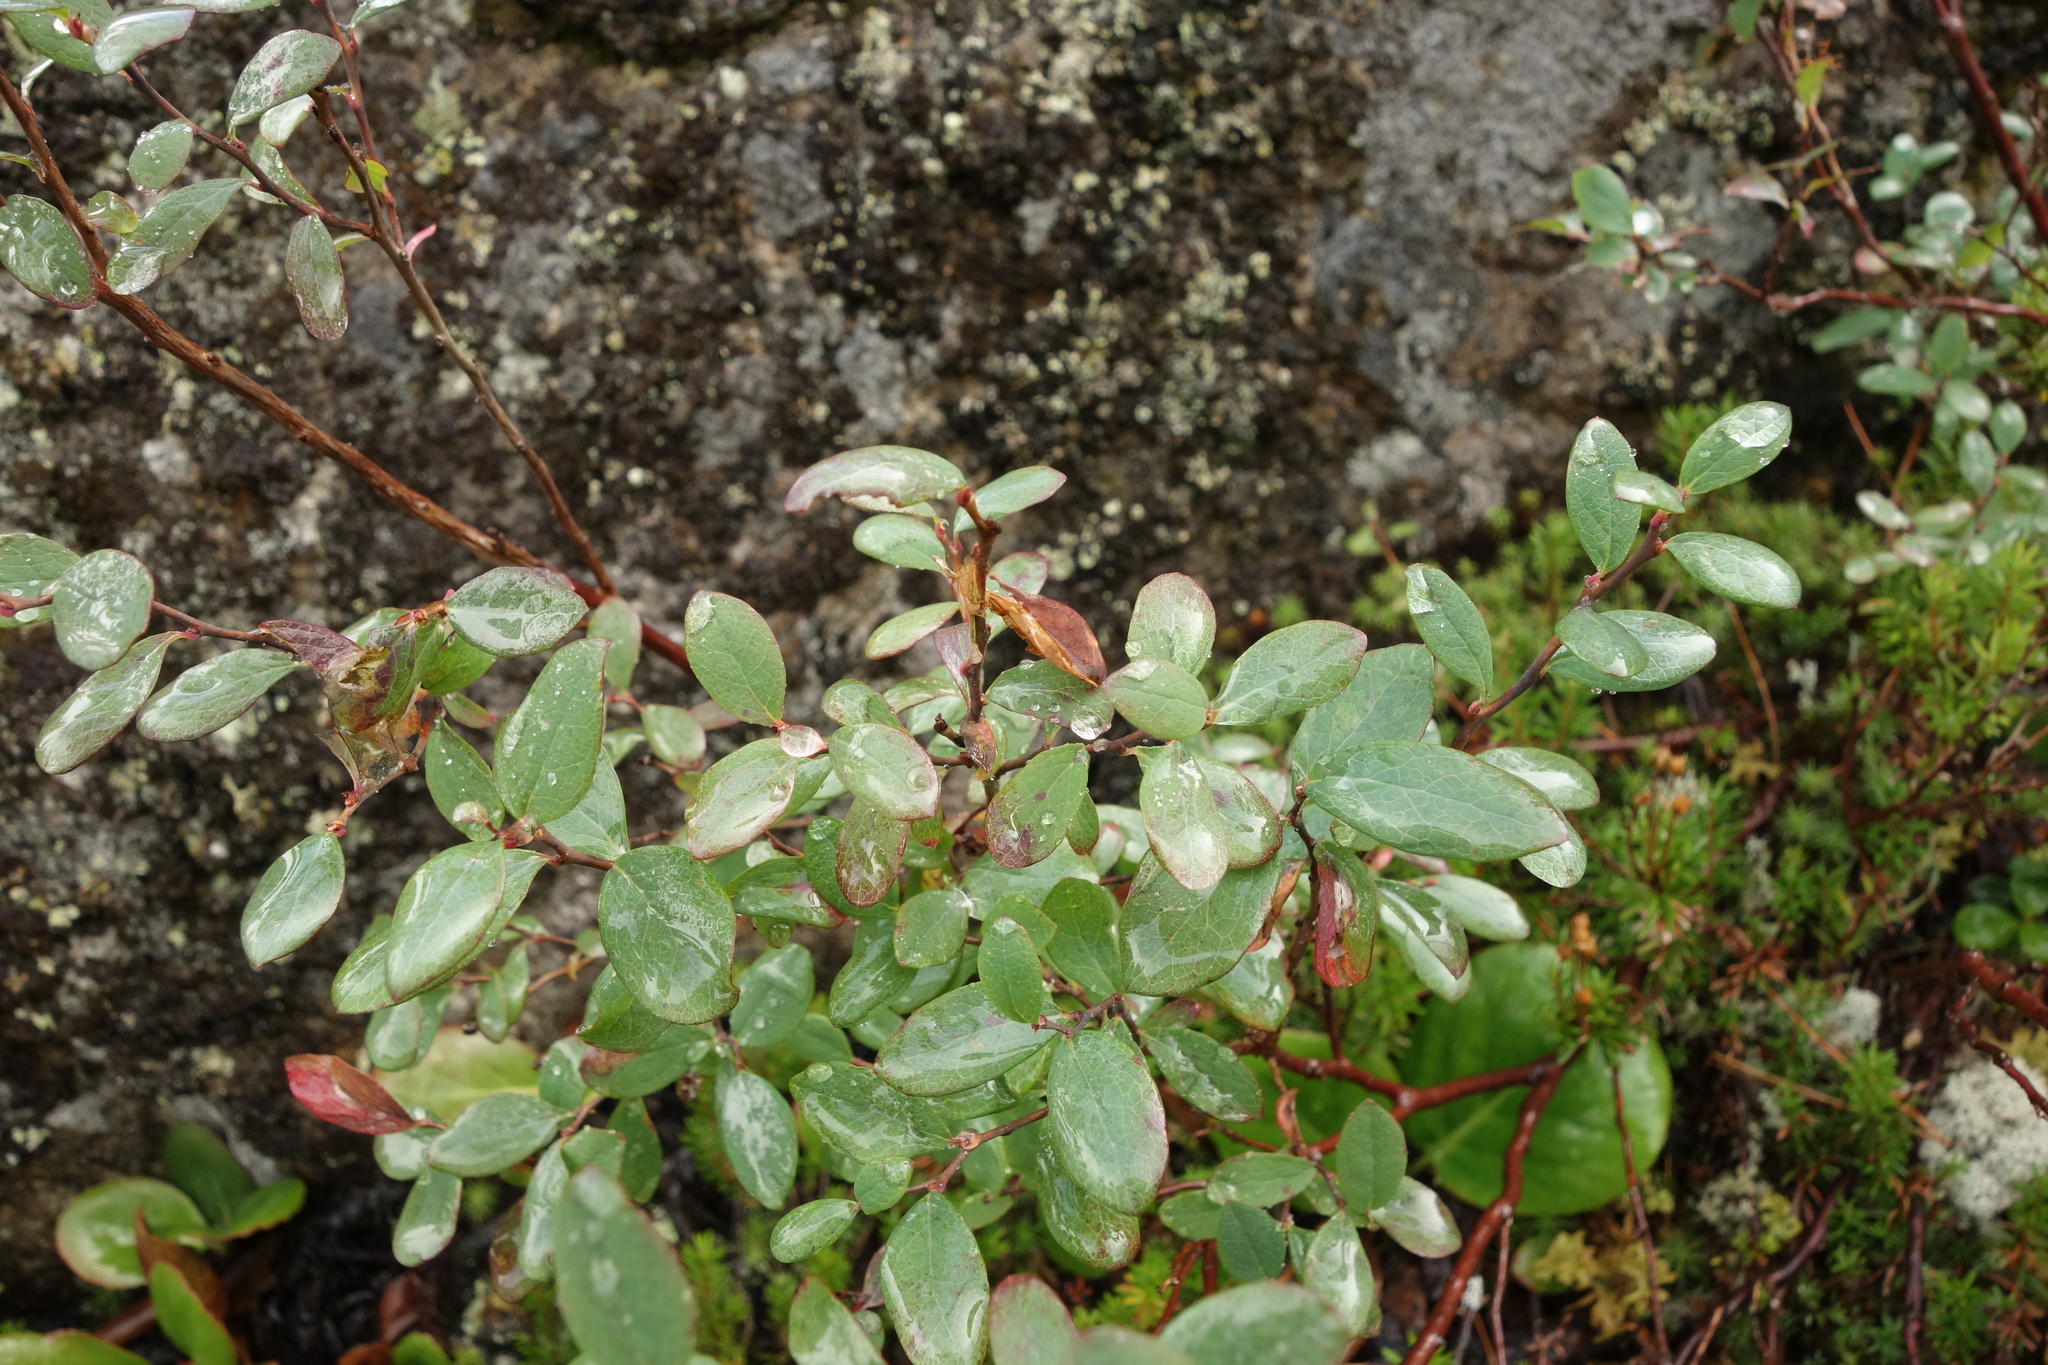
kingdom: Plantae
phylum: Tracheophyta
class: Magnoliopsida
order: Ericales
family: Ericaceae
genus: Vaccinium
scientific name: Vaccinium uliginosum
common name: Bog bilberry
